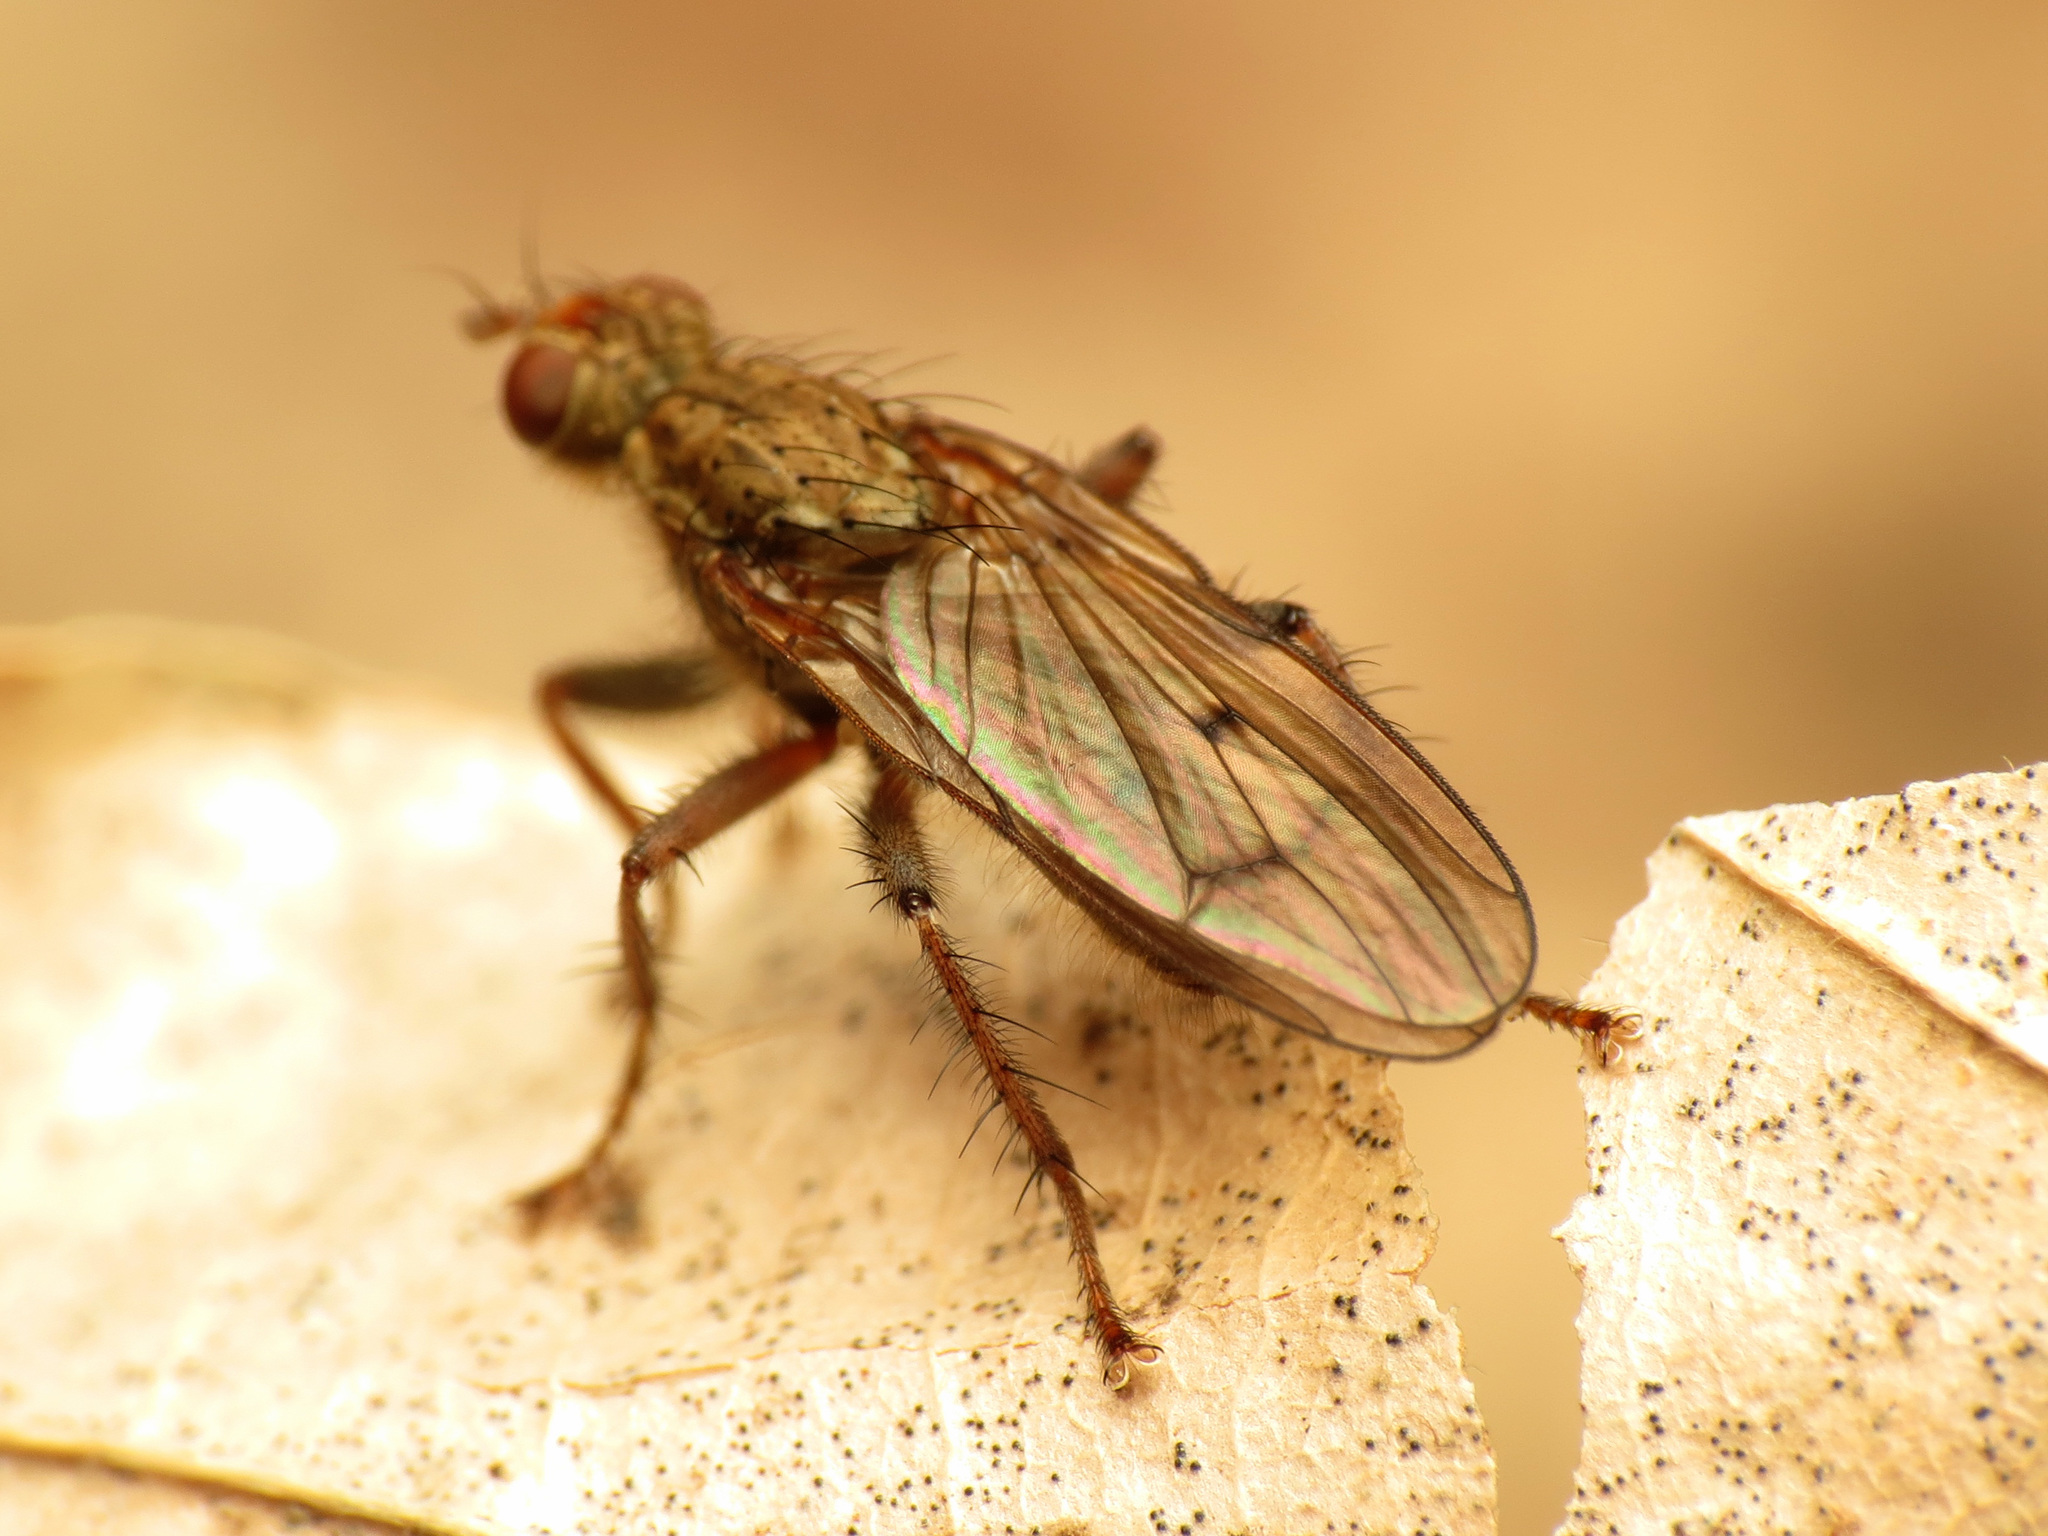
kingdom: Animalia
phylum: Arthropoda
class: Insecta
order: Diptera
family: Scathophagidae
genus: Scathophaga
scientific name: Scathophaga furcata
